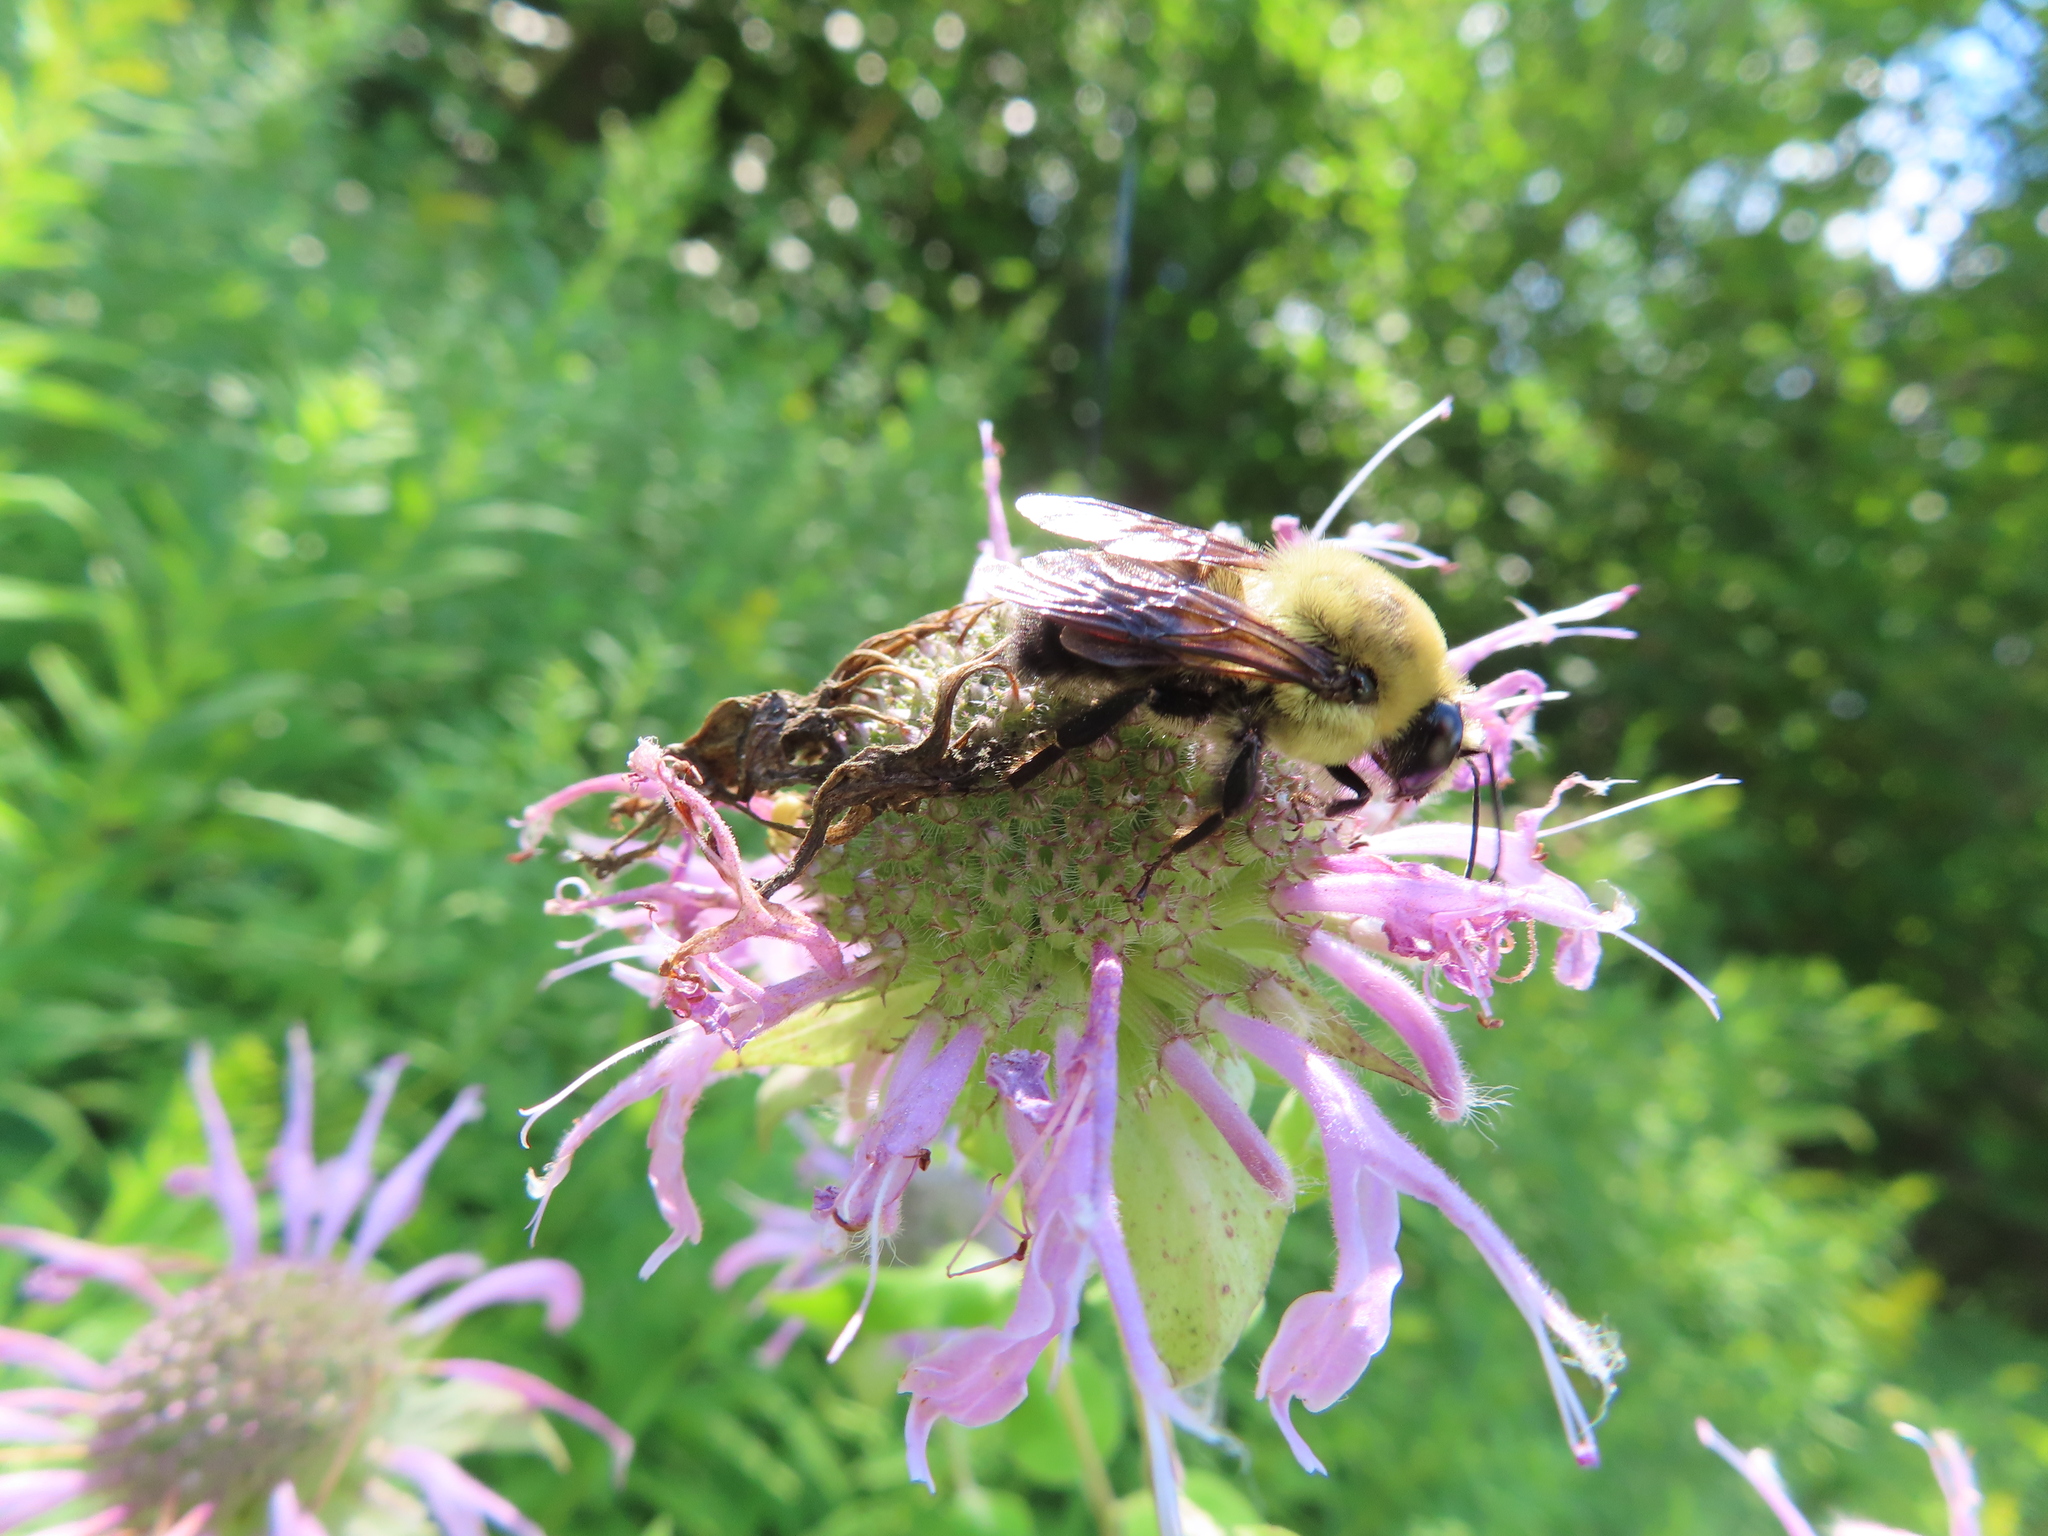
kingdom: Plantae
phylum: Tracheophyta
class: Magnoliopsida
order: Lamiales
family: Lamiaceae
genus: Monarda
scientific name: Monarda fistulosa
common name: Purple beebalm
